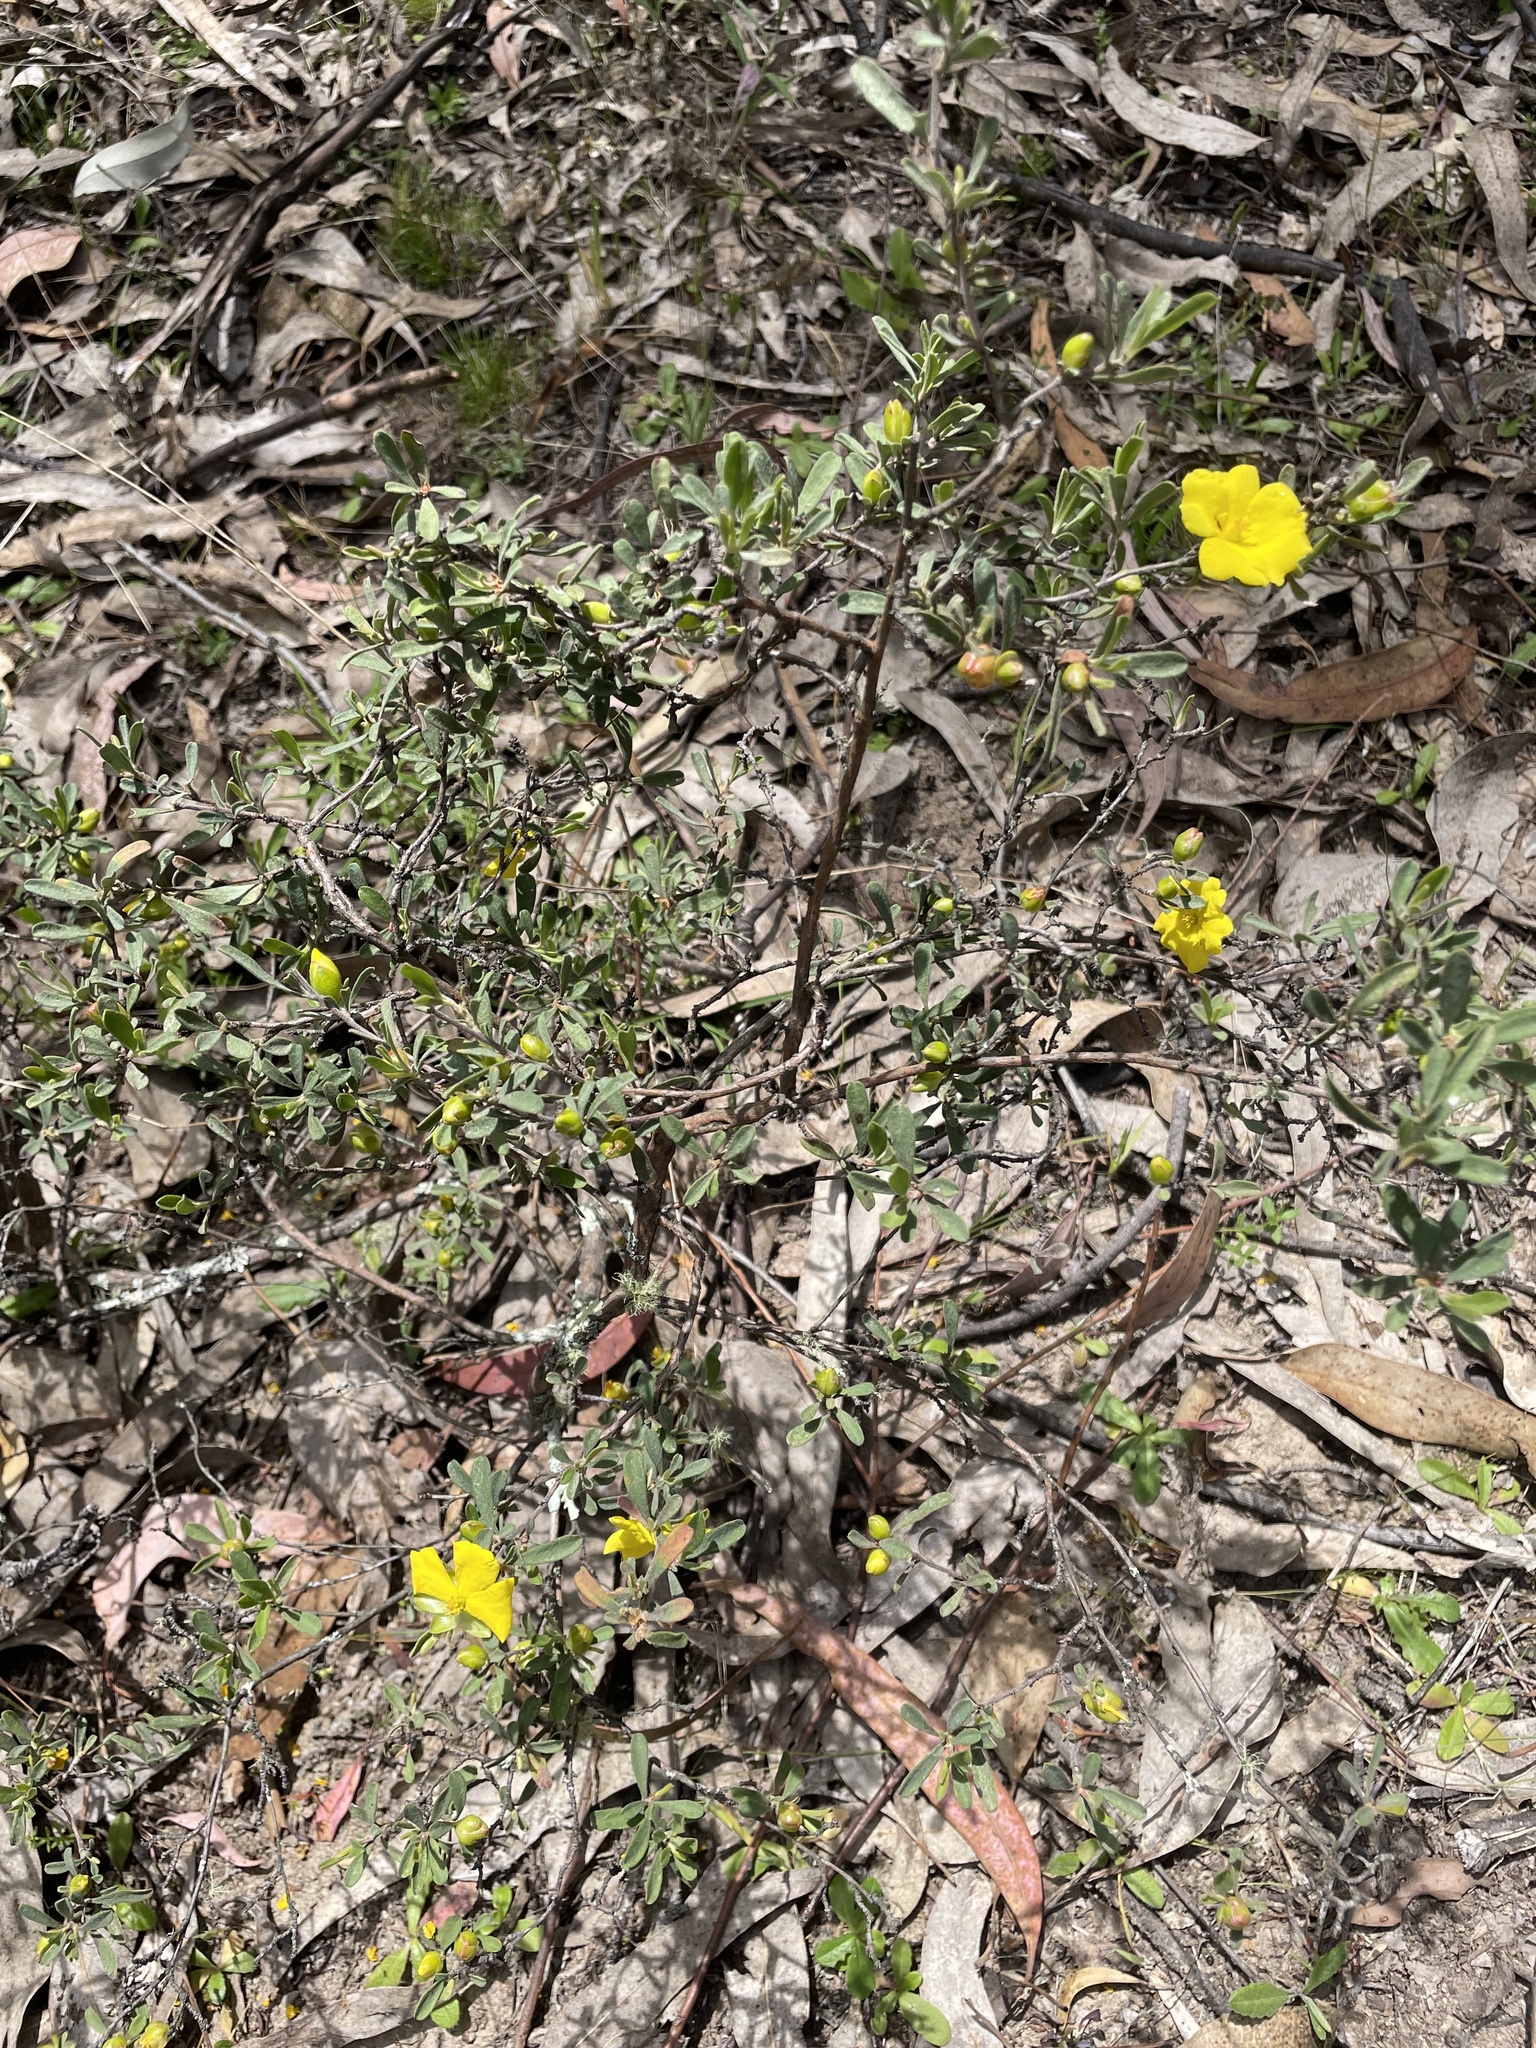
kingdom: Plantae
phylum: Tracheophyta
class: Magnoliopsida
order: Dilleniales
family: Dilleniaceae
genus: Hibbertia
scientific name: Hibbertia obtusifolia
